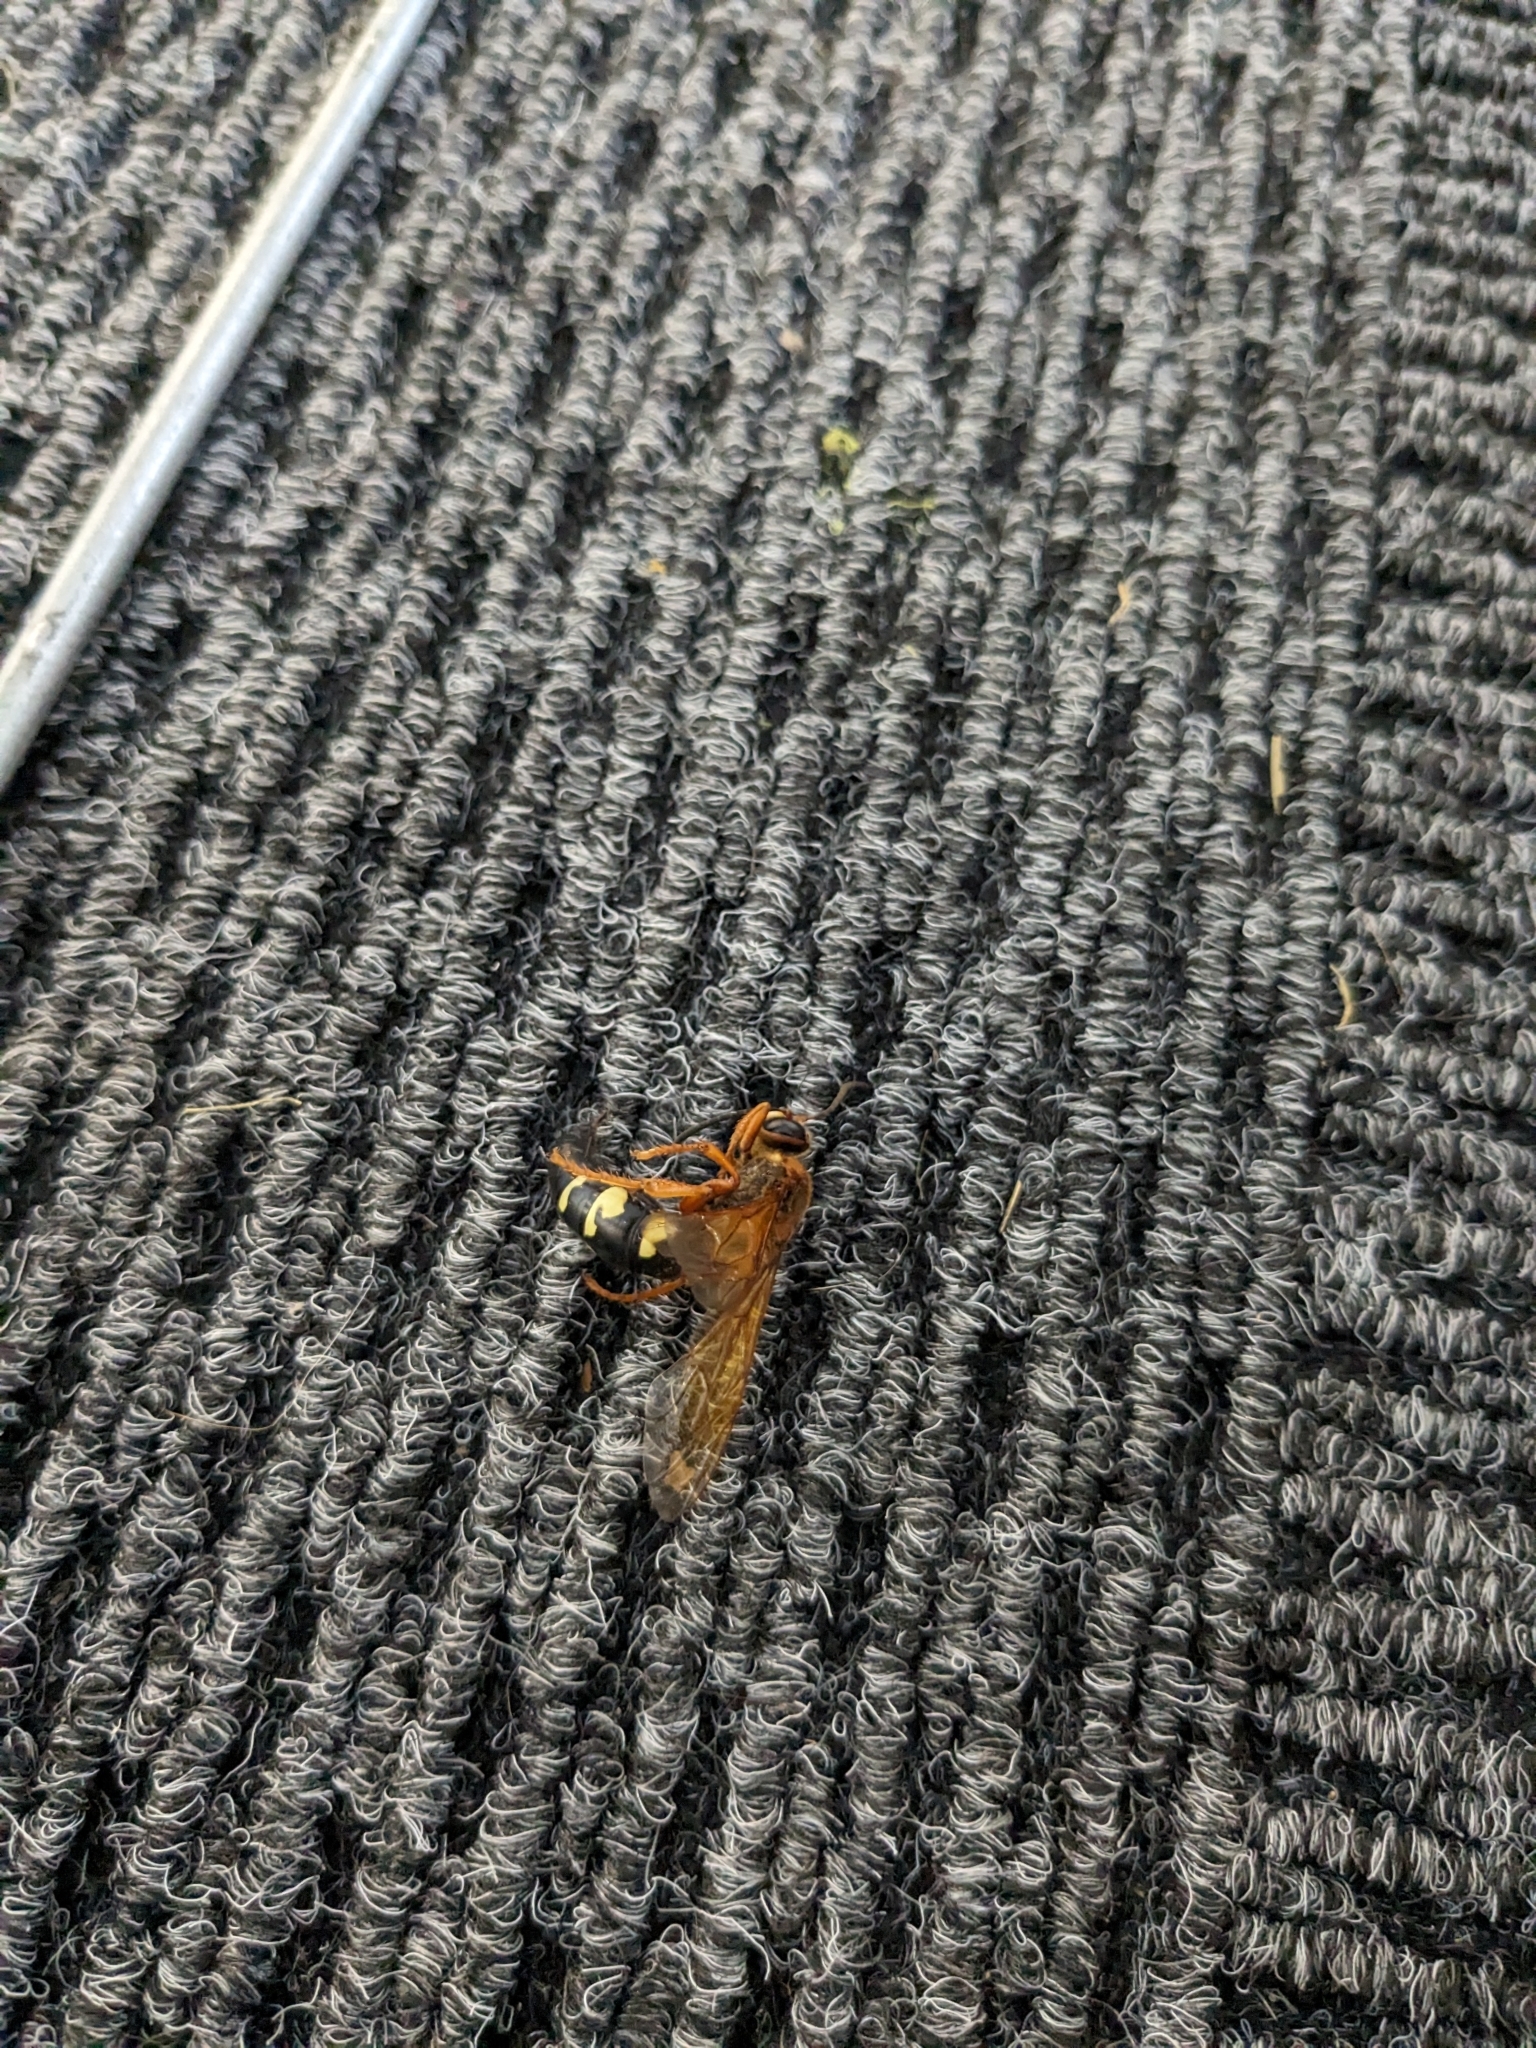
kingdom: Animalia
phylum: Arthropoda
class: Insecta
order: Hymenoptera
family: Crabronidae
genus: Sphecius
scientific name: Sphecius speciosus
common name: Cicada killer
